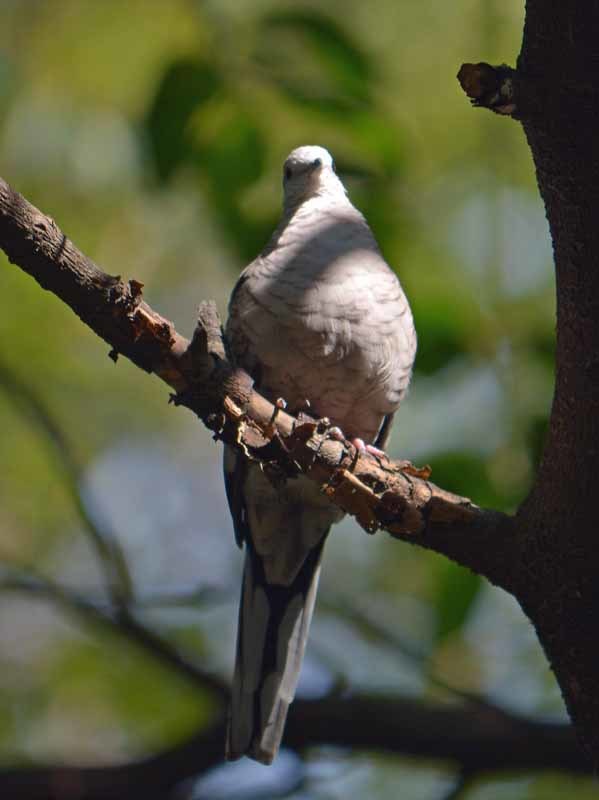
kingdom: Animalia
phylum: Chordata
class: Aves
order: Columbiformes
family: Columbidae
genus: Columbina
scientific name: Columbina inca
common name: Inca dove
